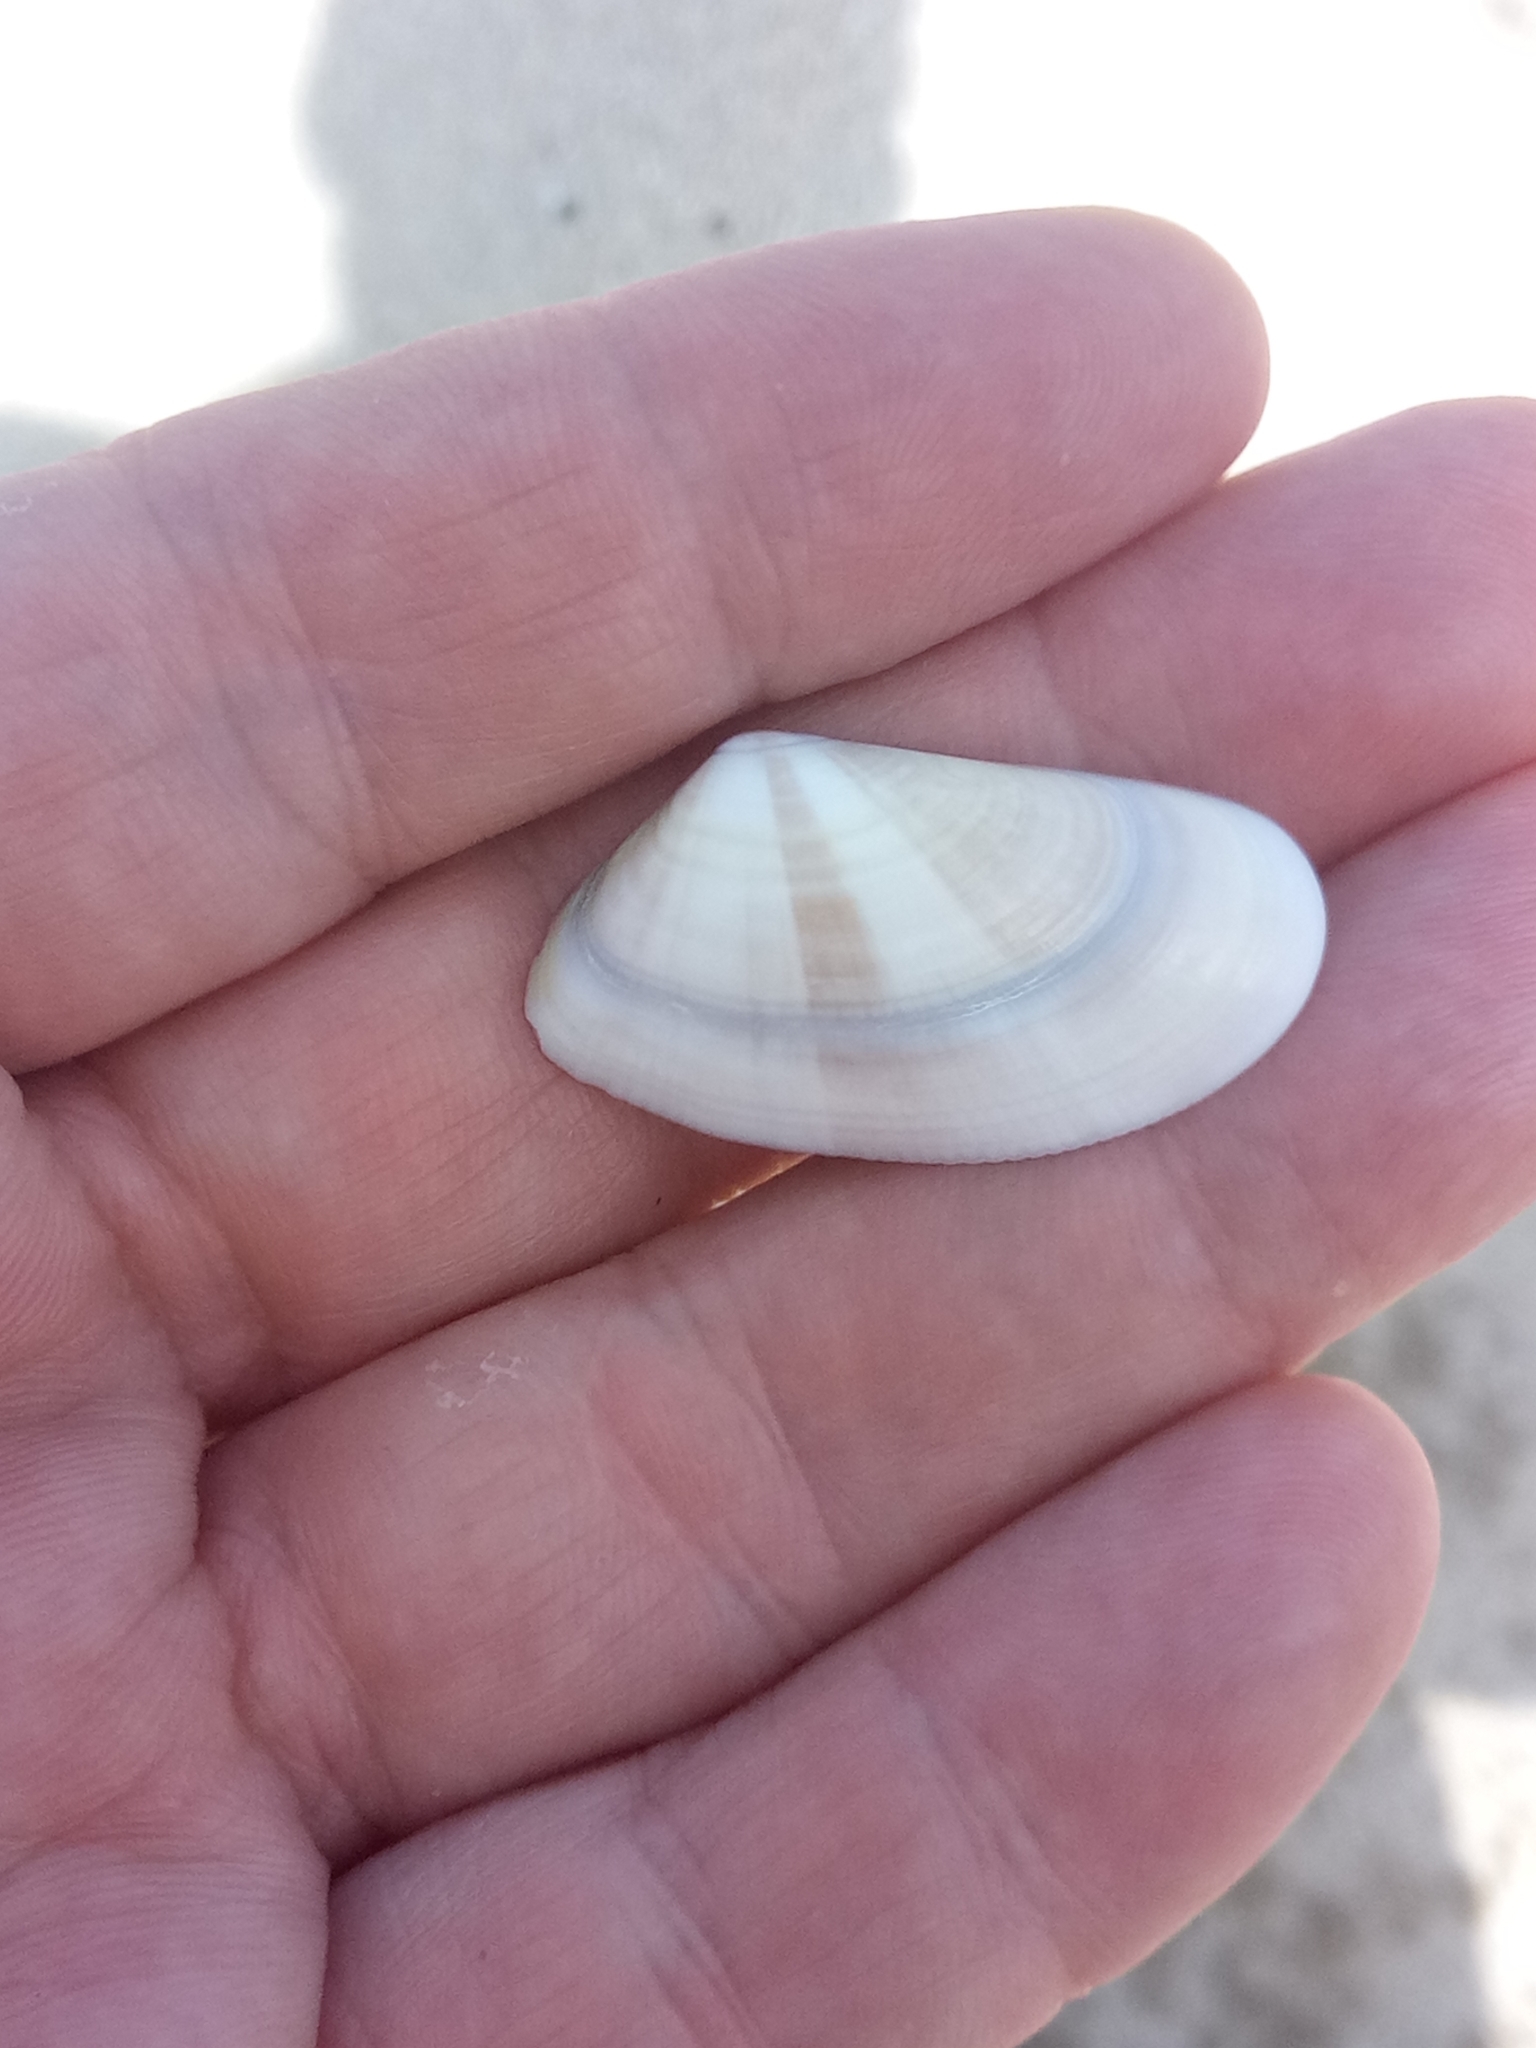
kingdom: Animalia
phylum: Mollusca
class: Bivalvia
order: Cardiida
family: Donacidae
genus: Donax
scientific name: Donax trunculus
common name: Truncate donax
